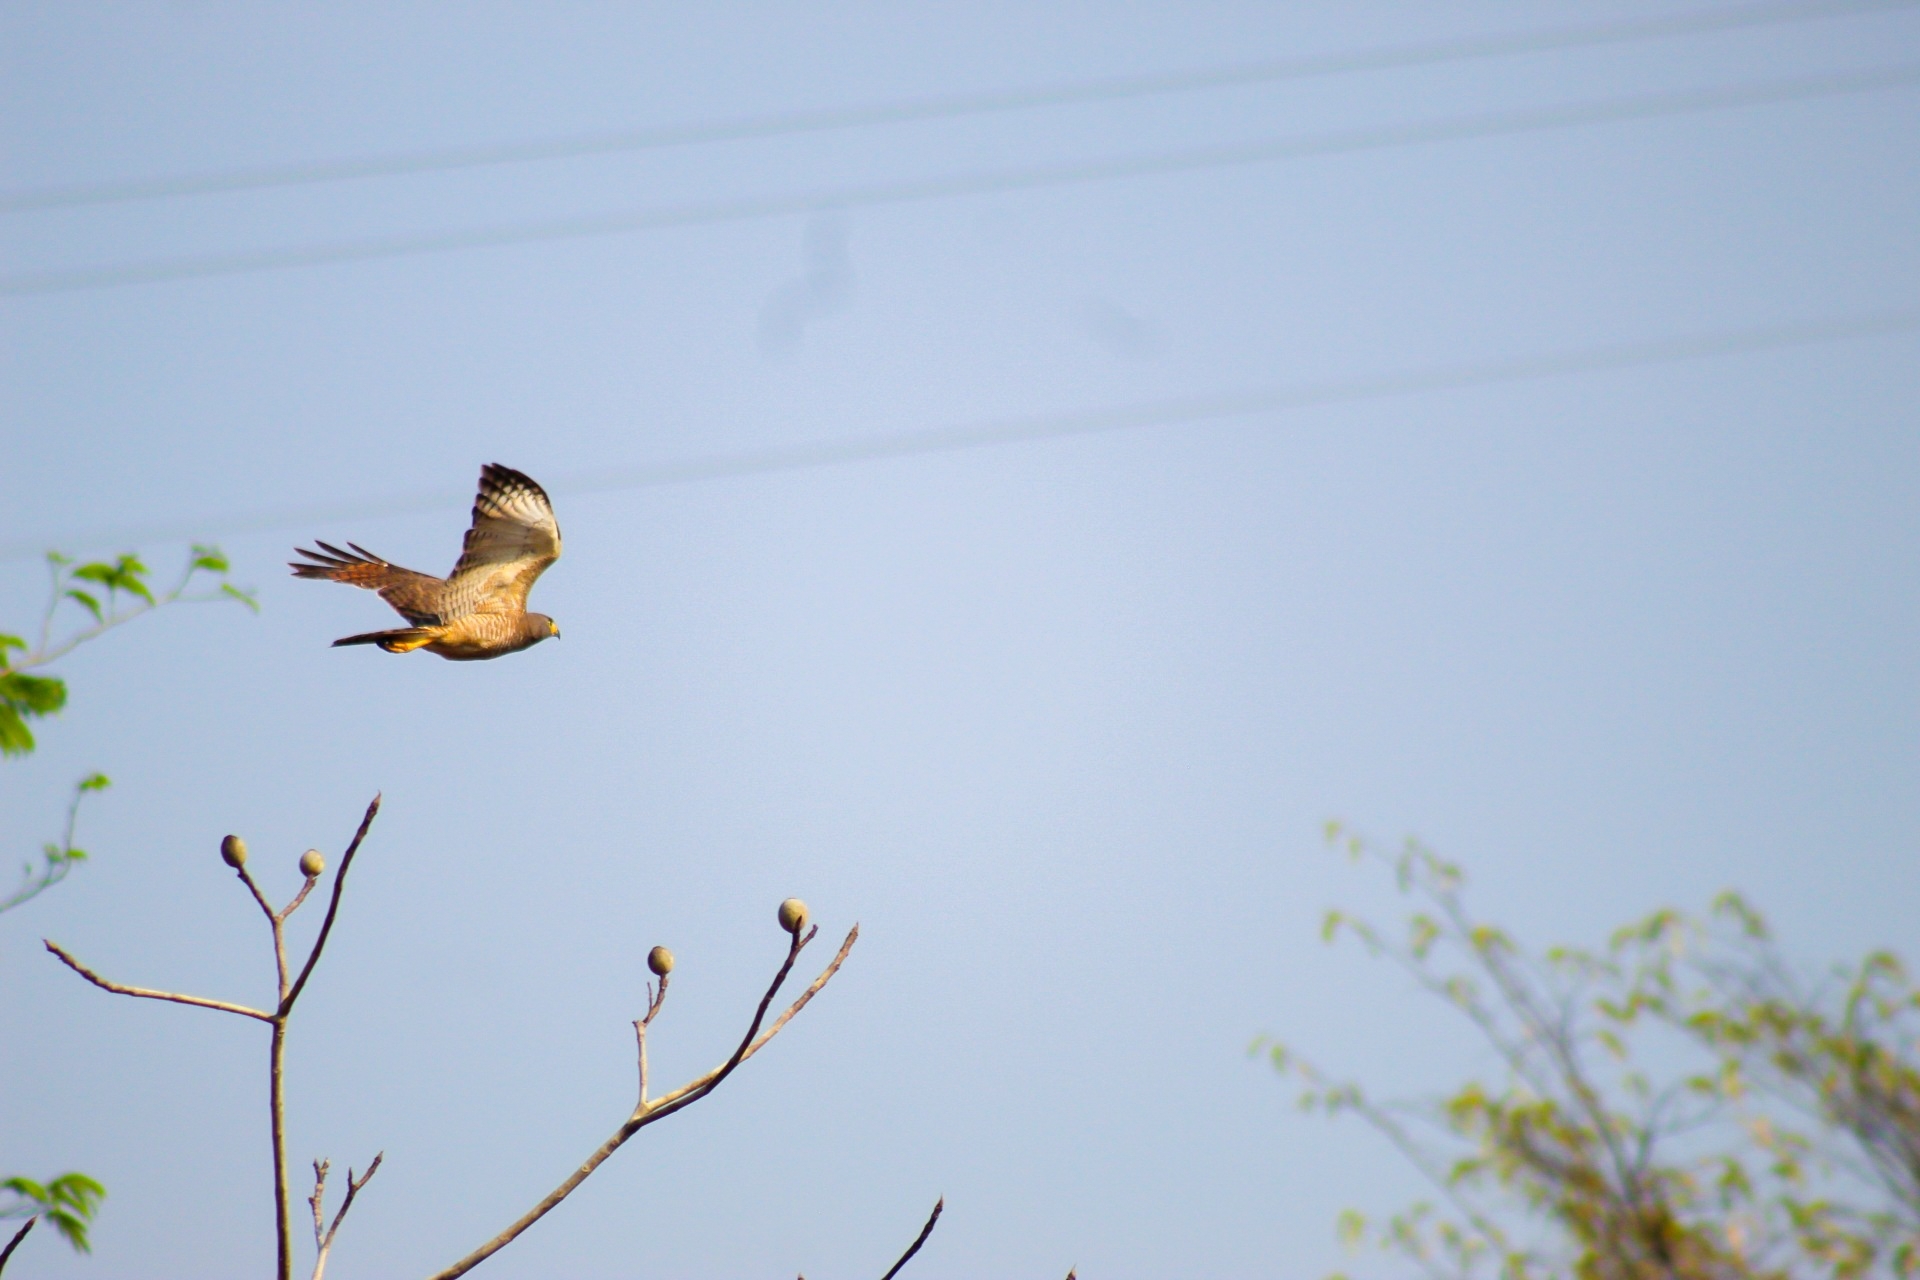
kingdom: Animalia
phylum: Chordata
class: Aves
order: Accipitriformes
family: Accipitridae
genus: Rupornis
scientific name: Rupornis magnirostris
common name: Roadside hawk
